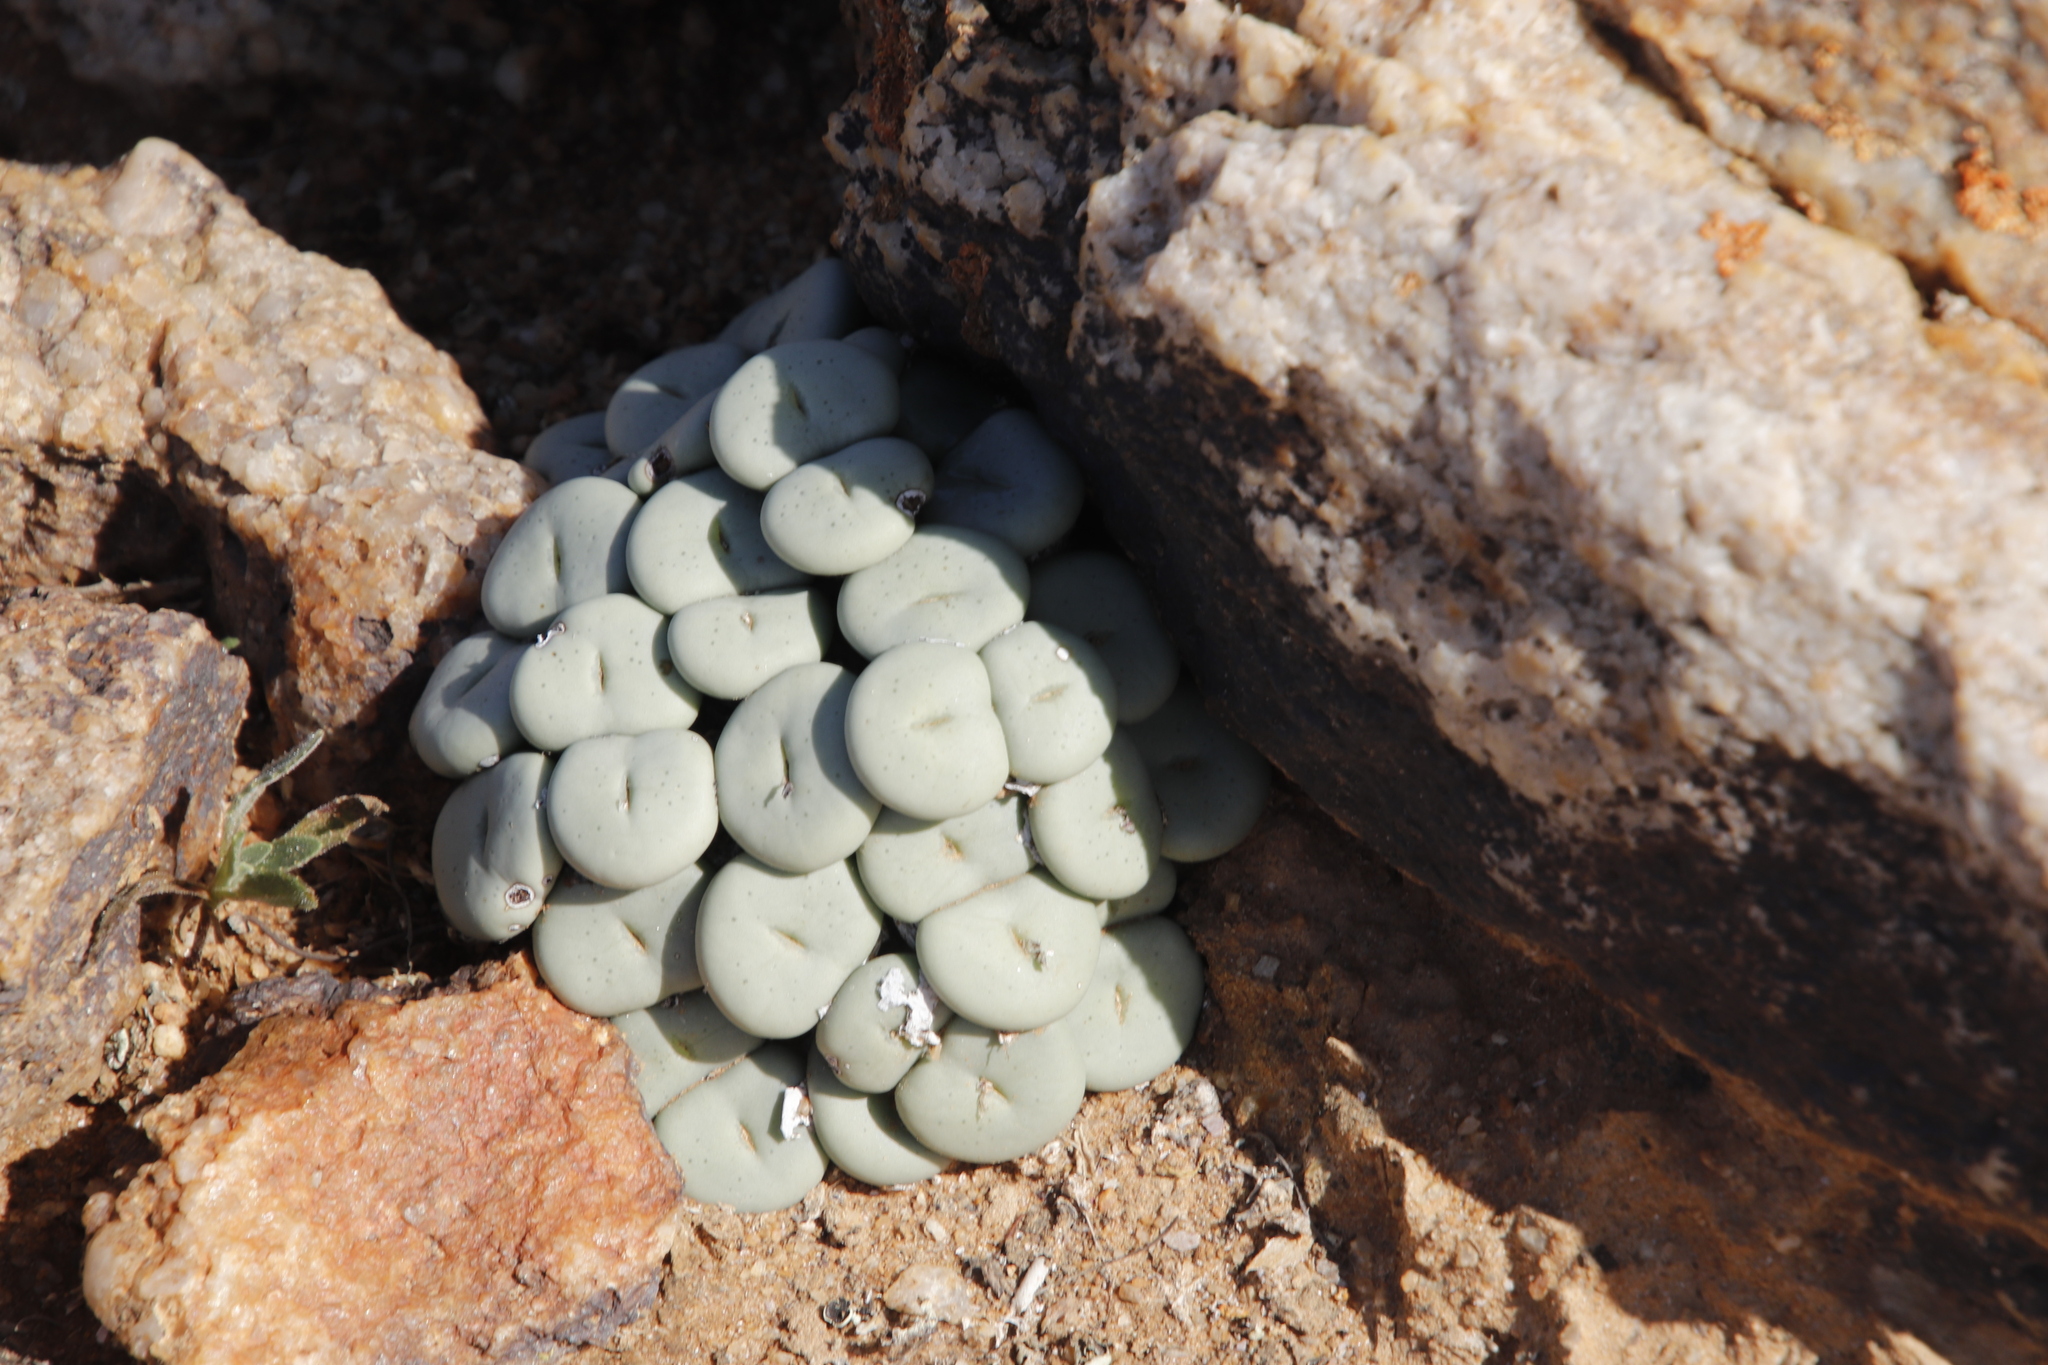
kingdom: Plantae
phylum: Tracheophyta
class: Magnoliopsida
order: Caryophyllales
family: Aizoaceae
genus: Conophytum
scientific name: Conophytum minutum
